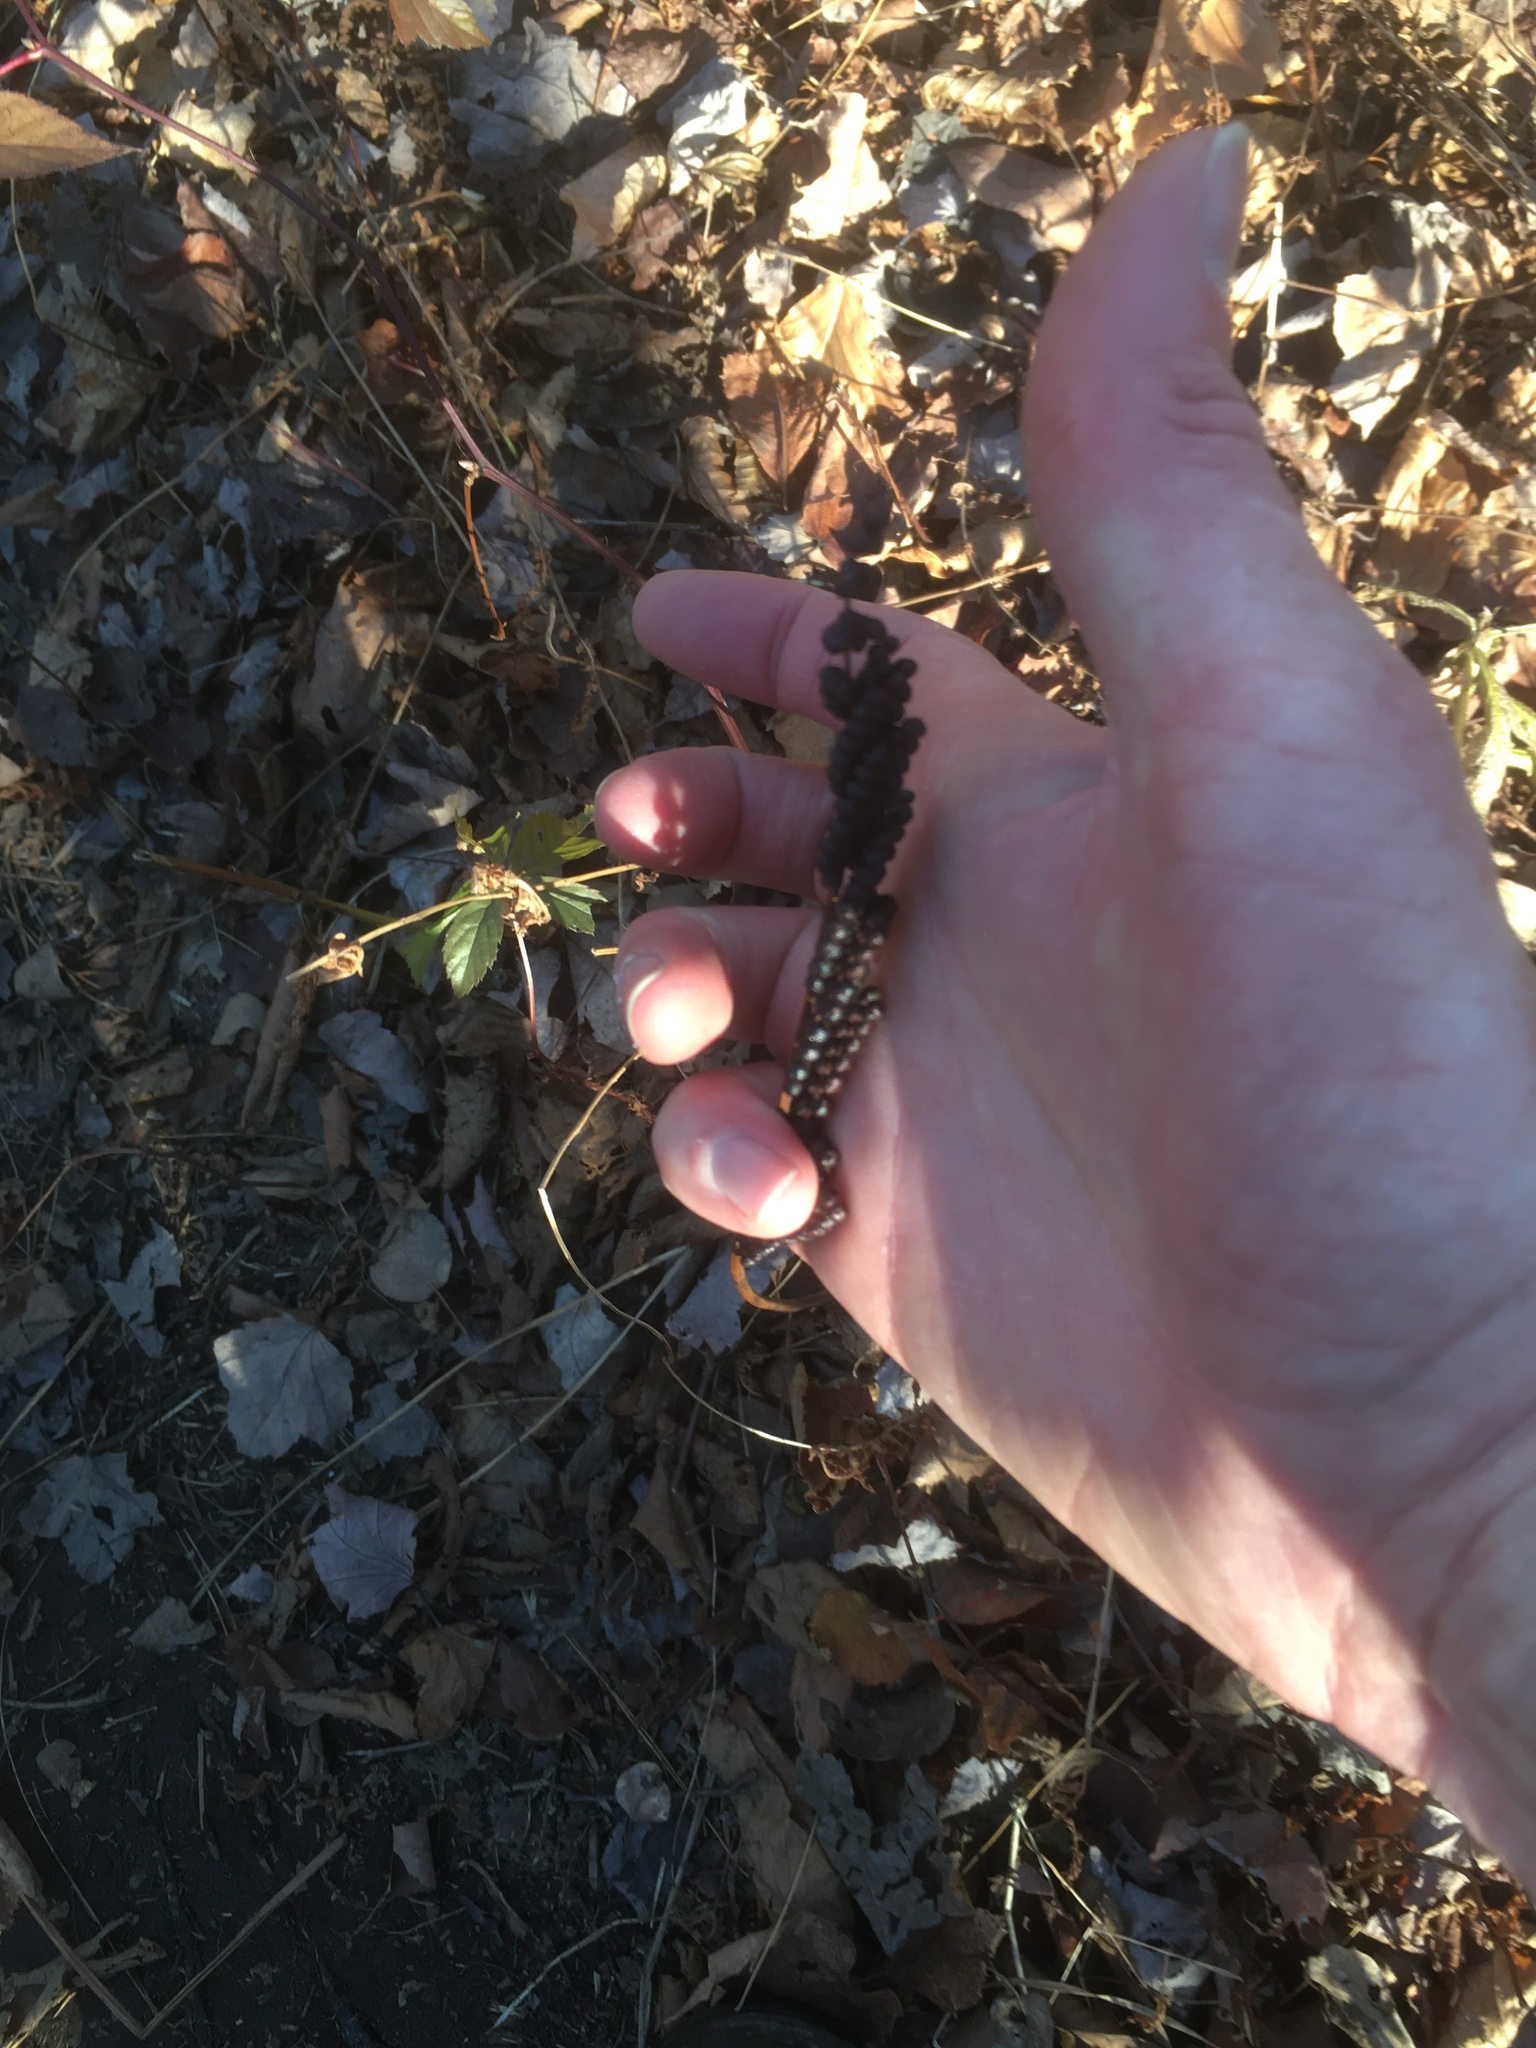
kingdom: Plantae
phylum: Tracheophyta
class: Polypodiopsida
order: Polypodiales
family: Onocleaceae
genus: Onoclea
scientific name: Onoclea sensibilis
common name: Sensitive fern
